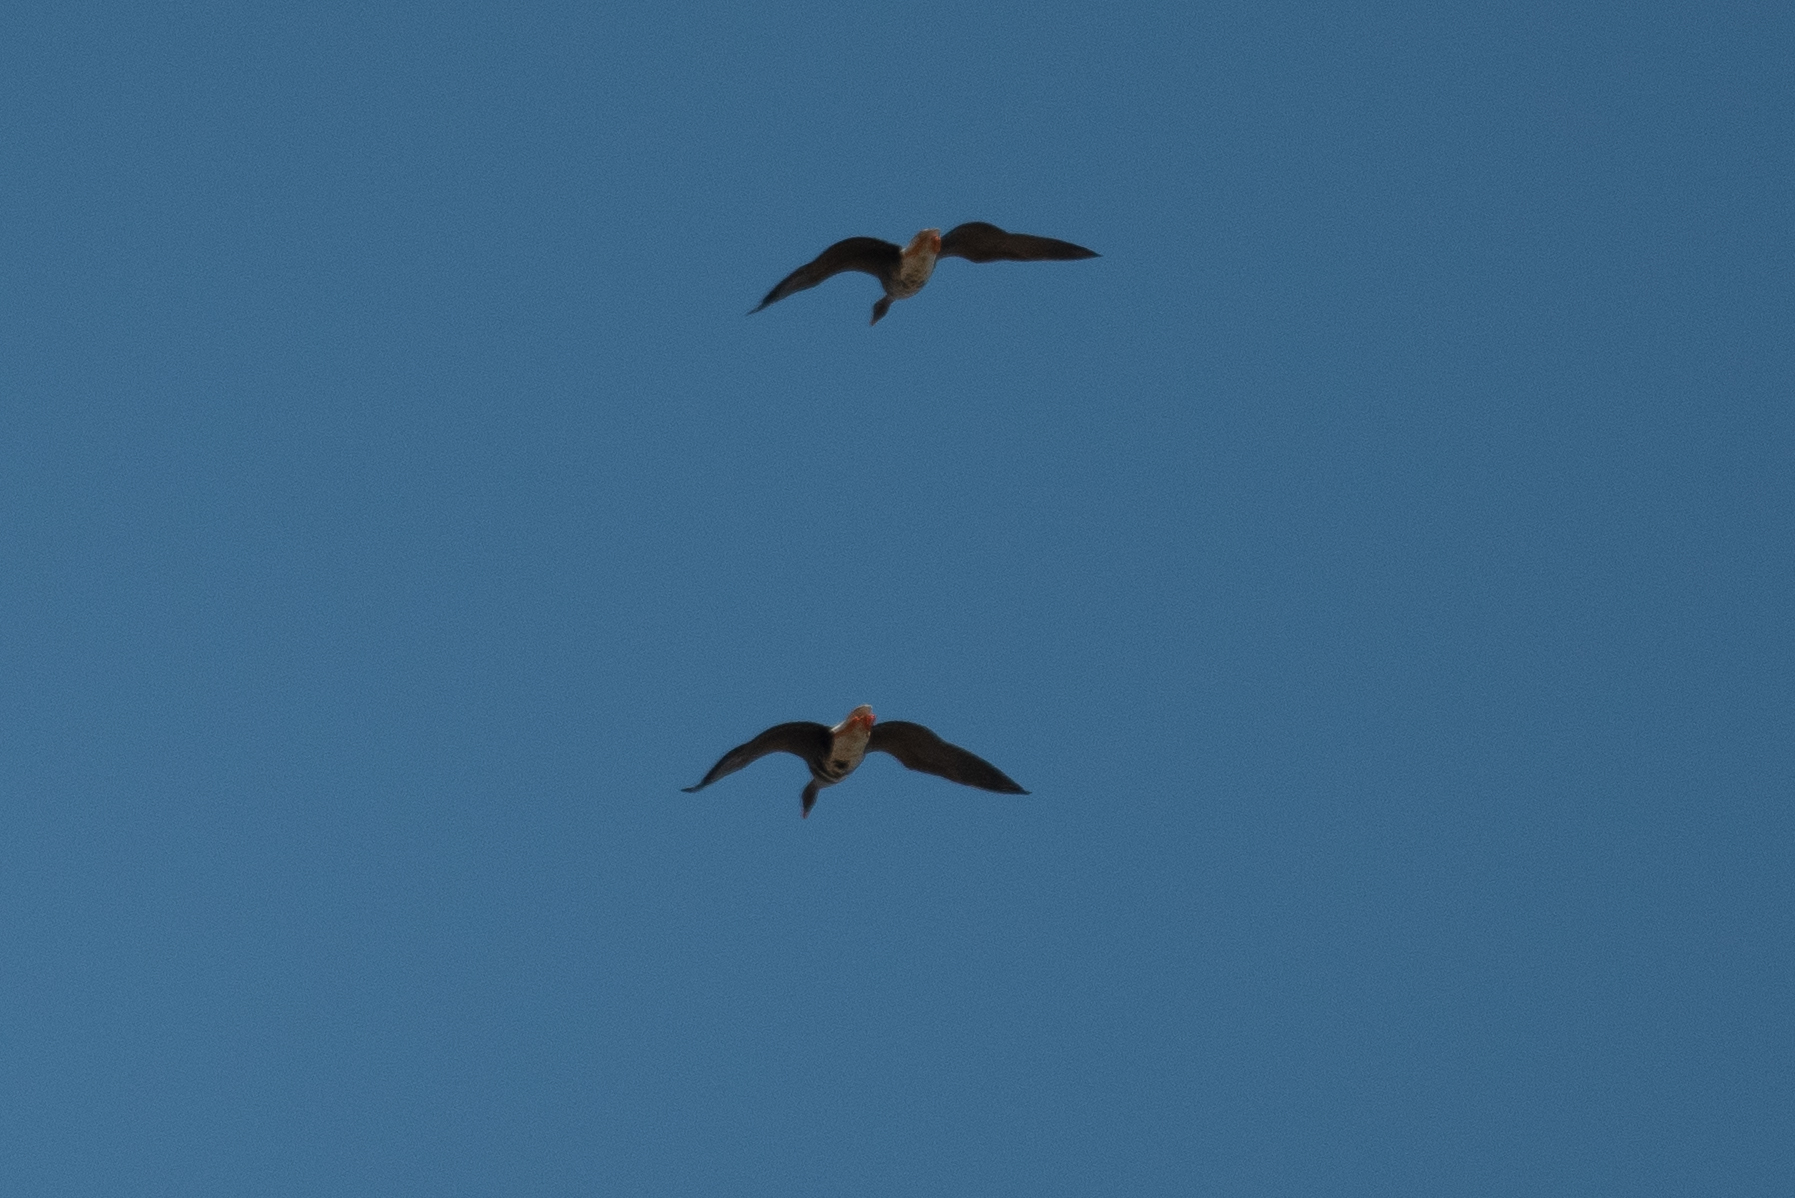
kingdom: Animalia
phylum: Chordata
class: Aves
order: Anseriformes
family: Anatidae
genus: Anser
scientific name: Anser albifrons
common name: Greater white-fronted goose
